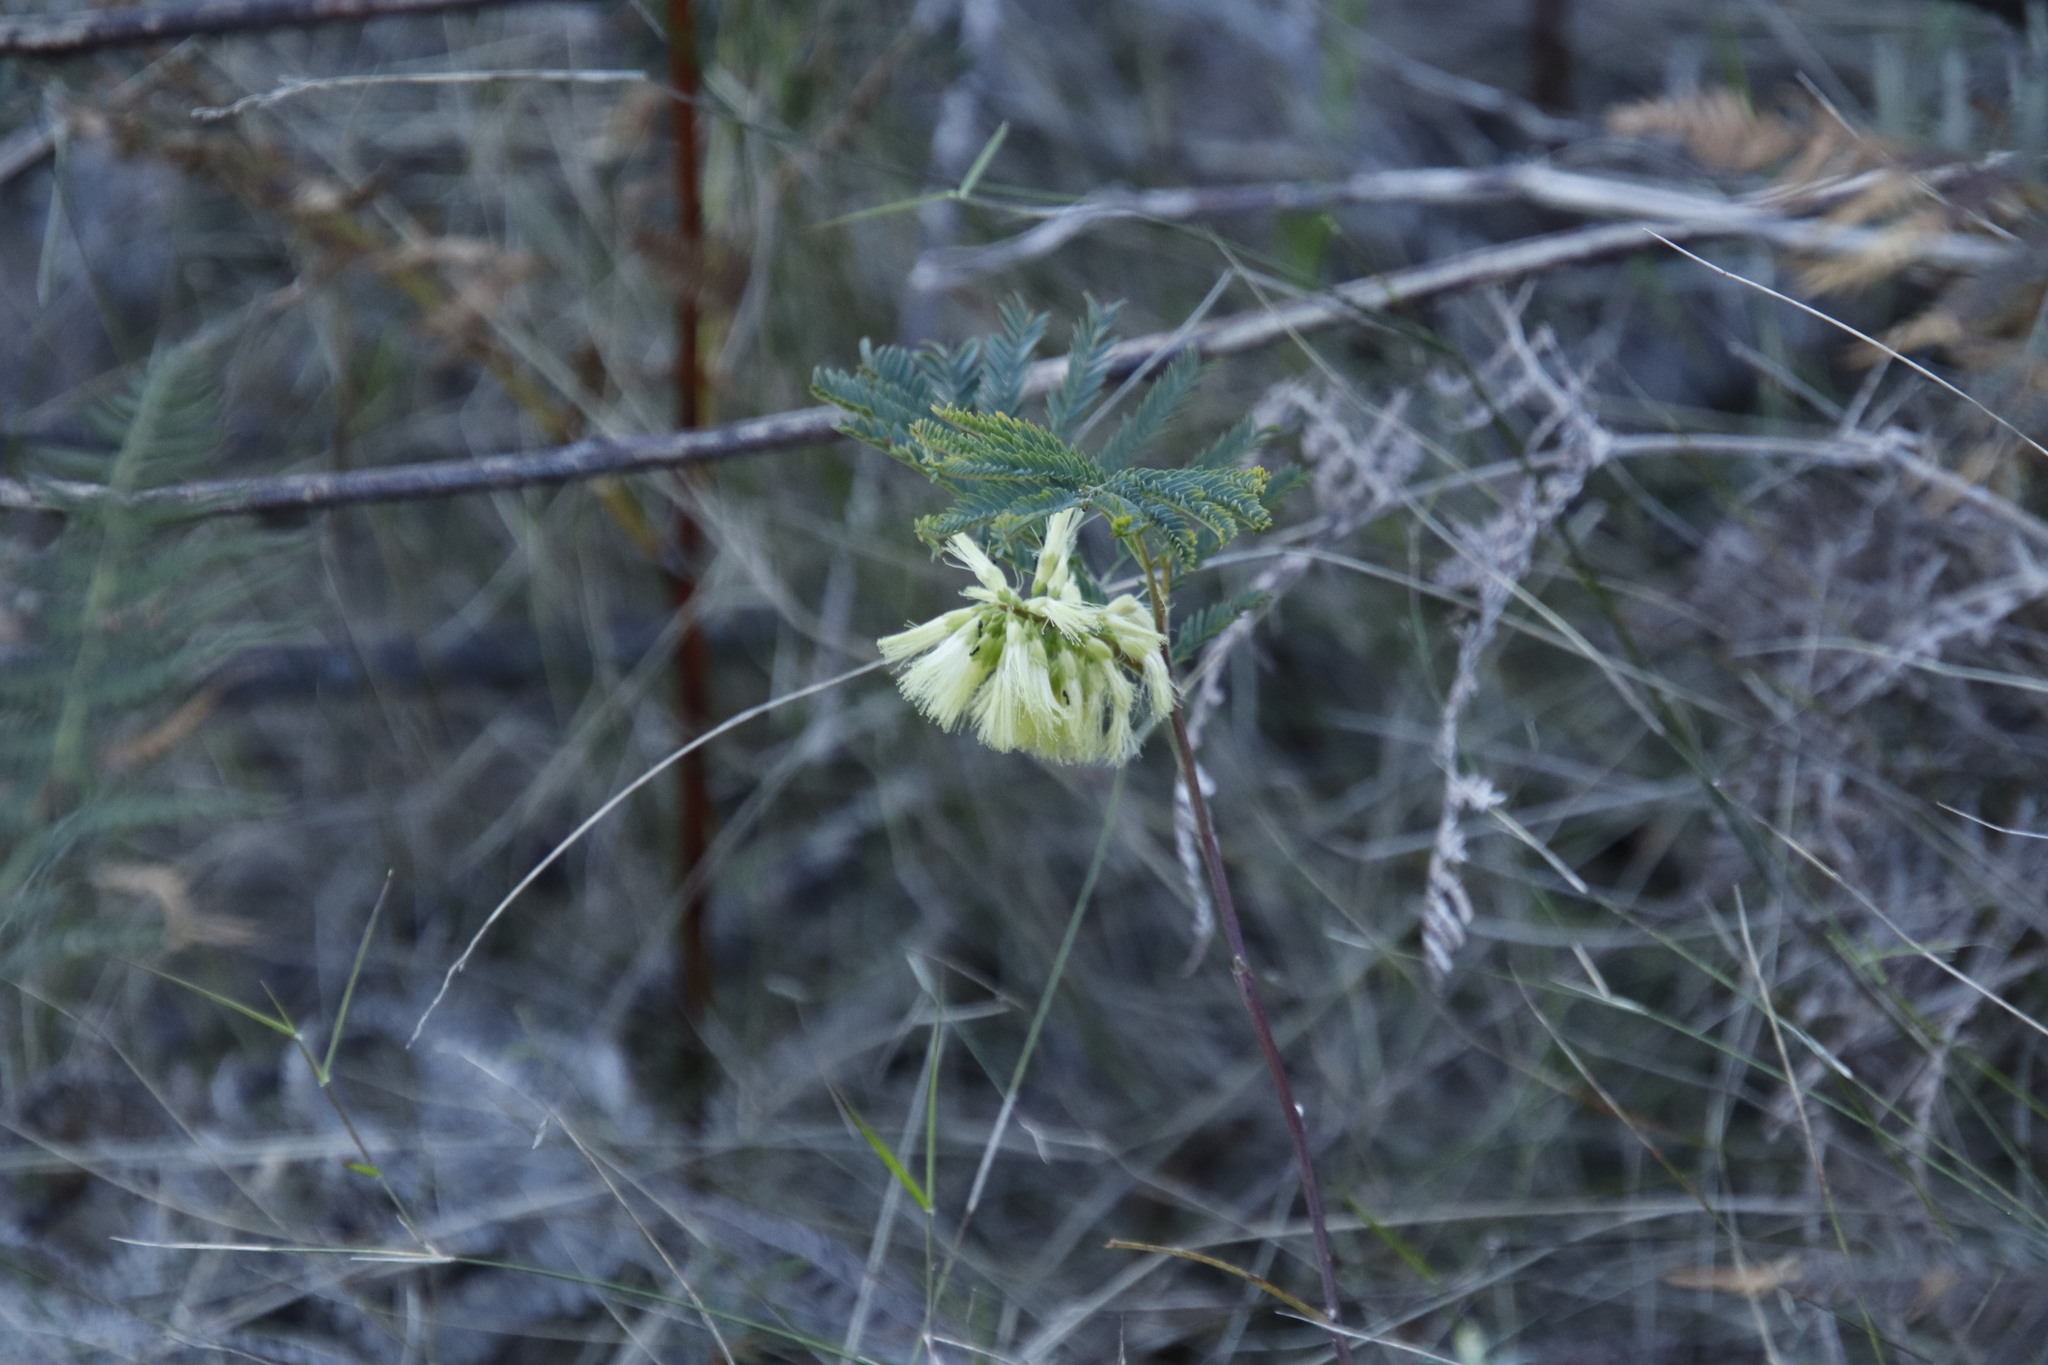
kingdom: Plantae
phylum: Tracheophyta
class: Magnoliopsida
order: Fabales
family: Fabaceae
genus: Paraserianthes
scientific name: Paraserianthes lophantha
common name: Plume albizia
